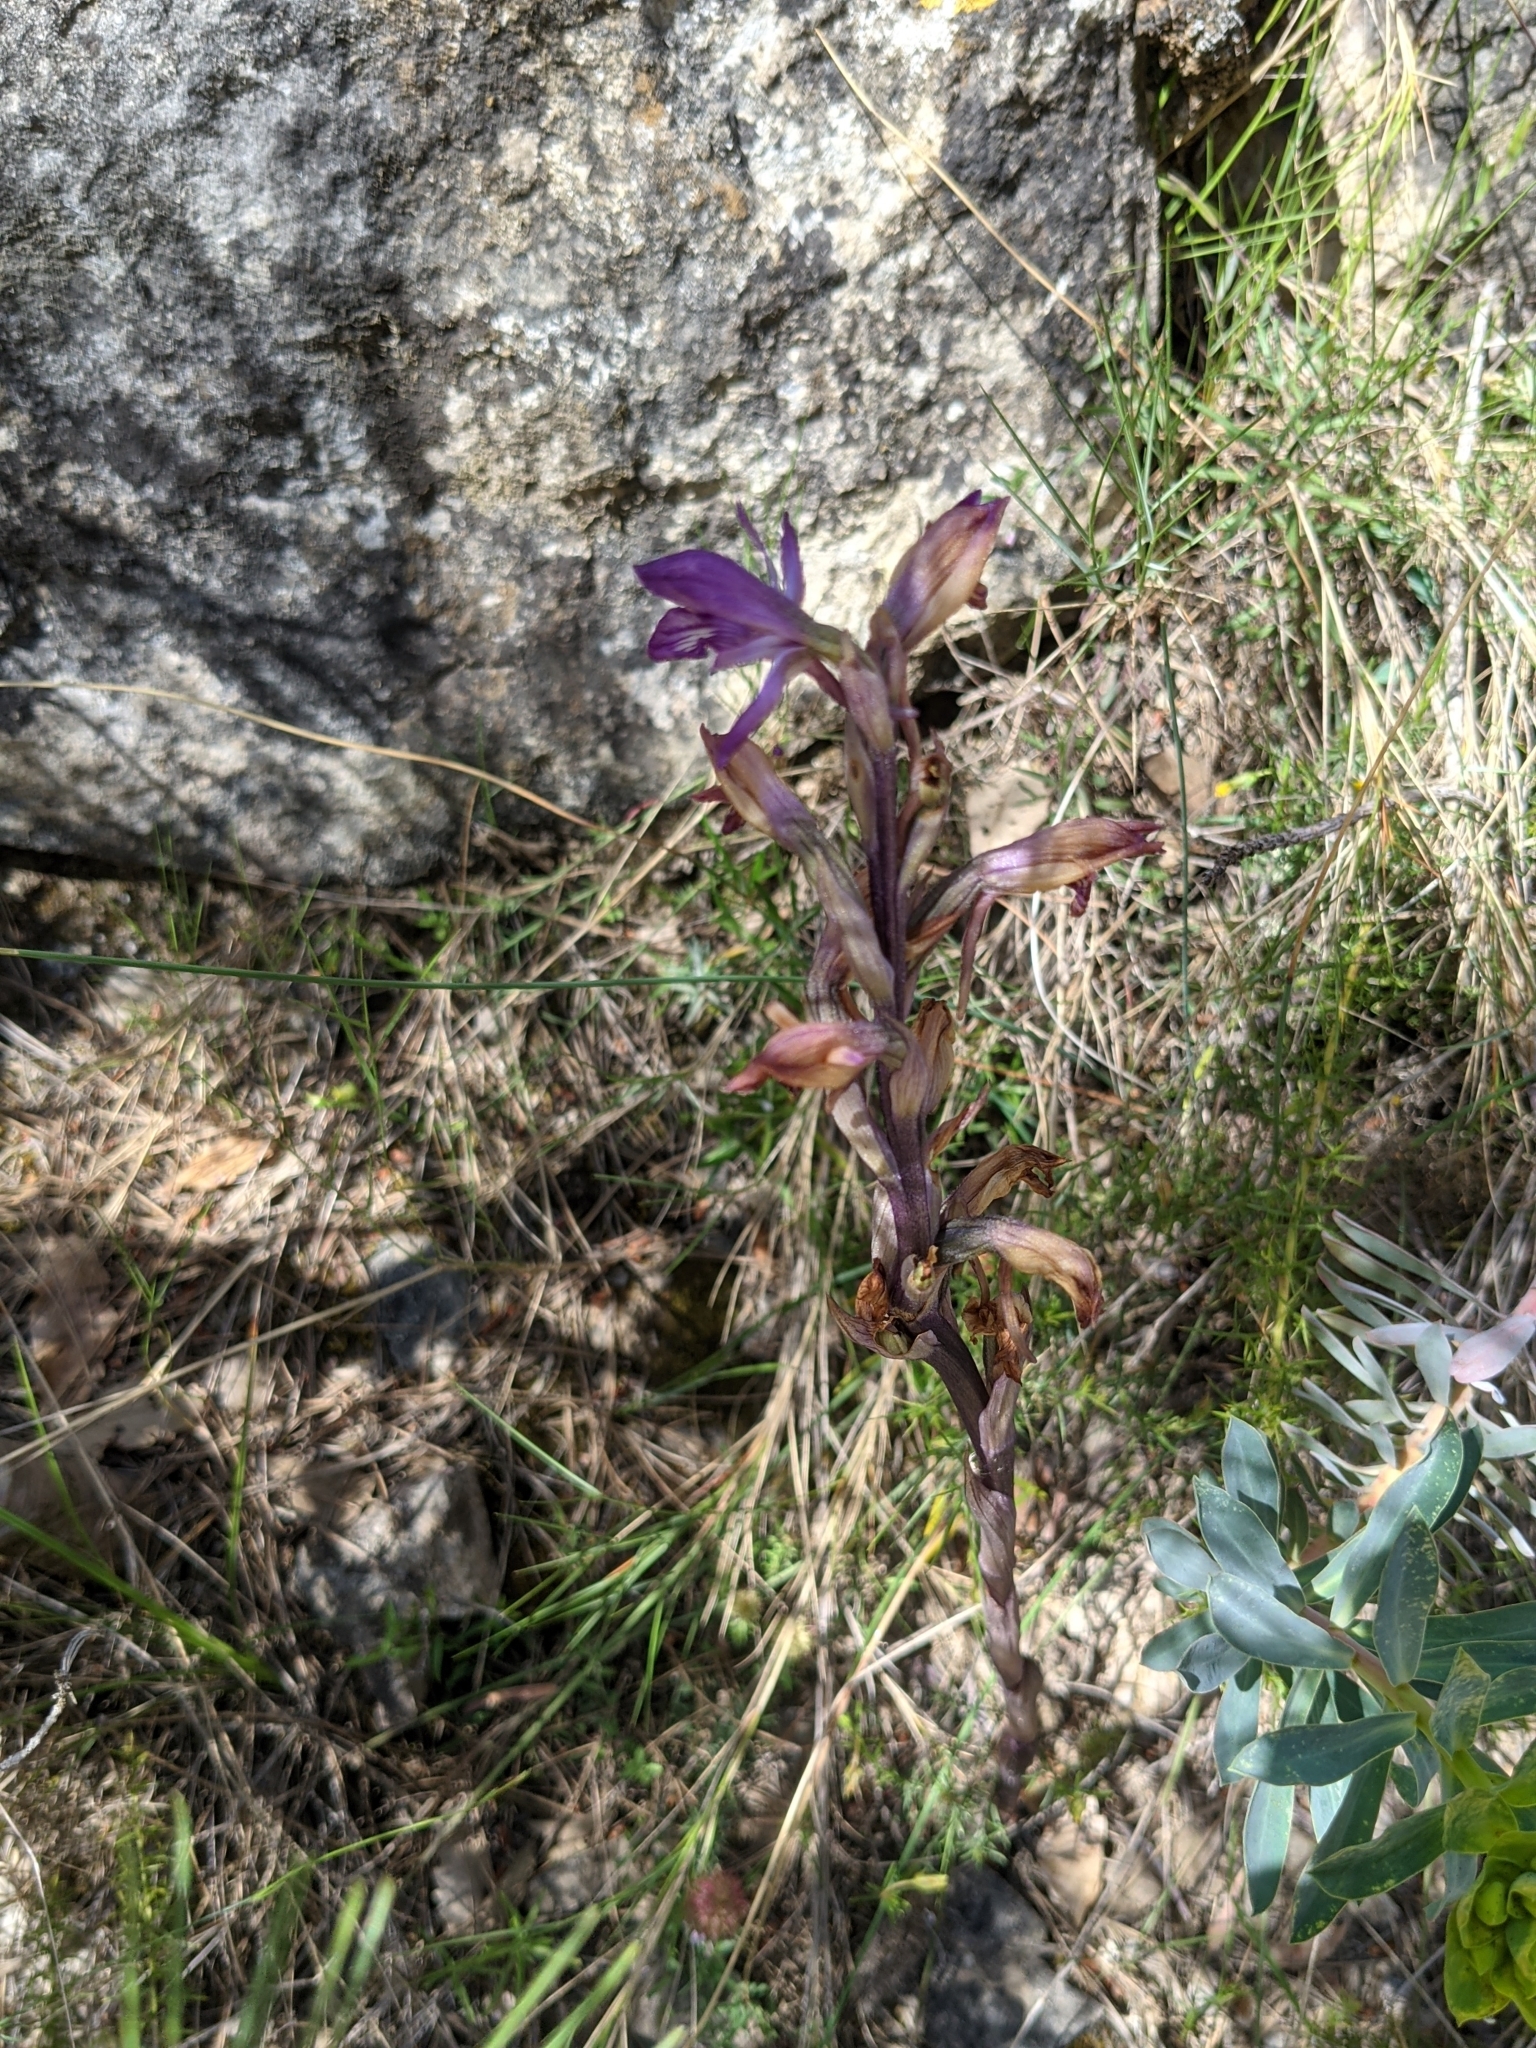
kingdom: Plantae
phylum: Tracheophyta
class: Liliopsida
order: Asparagales
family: Orchidaceae
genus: Limodorum
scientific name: Limodorum abortivum
